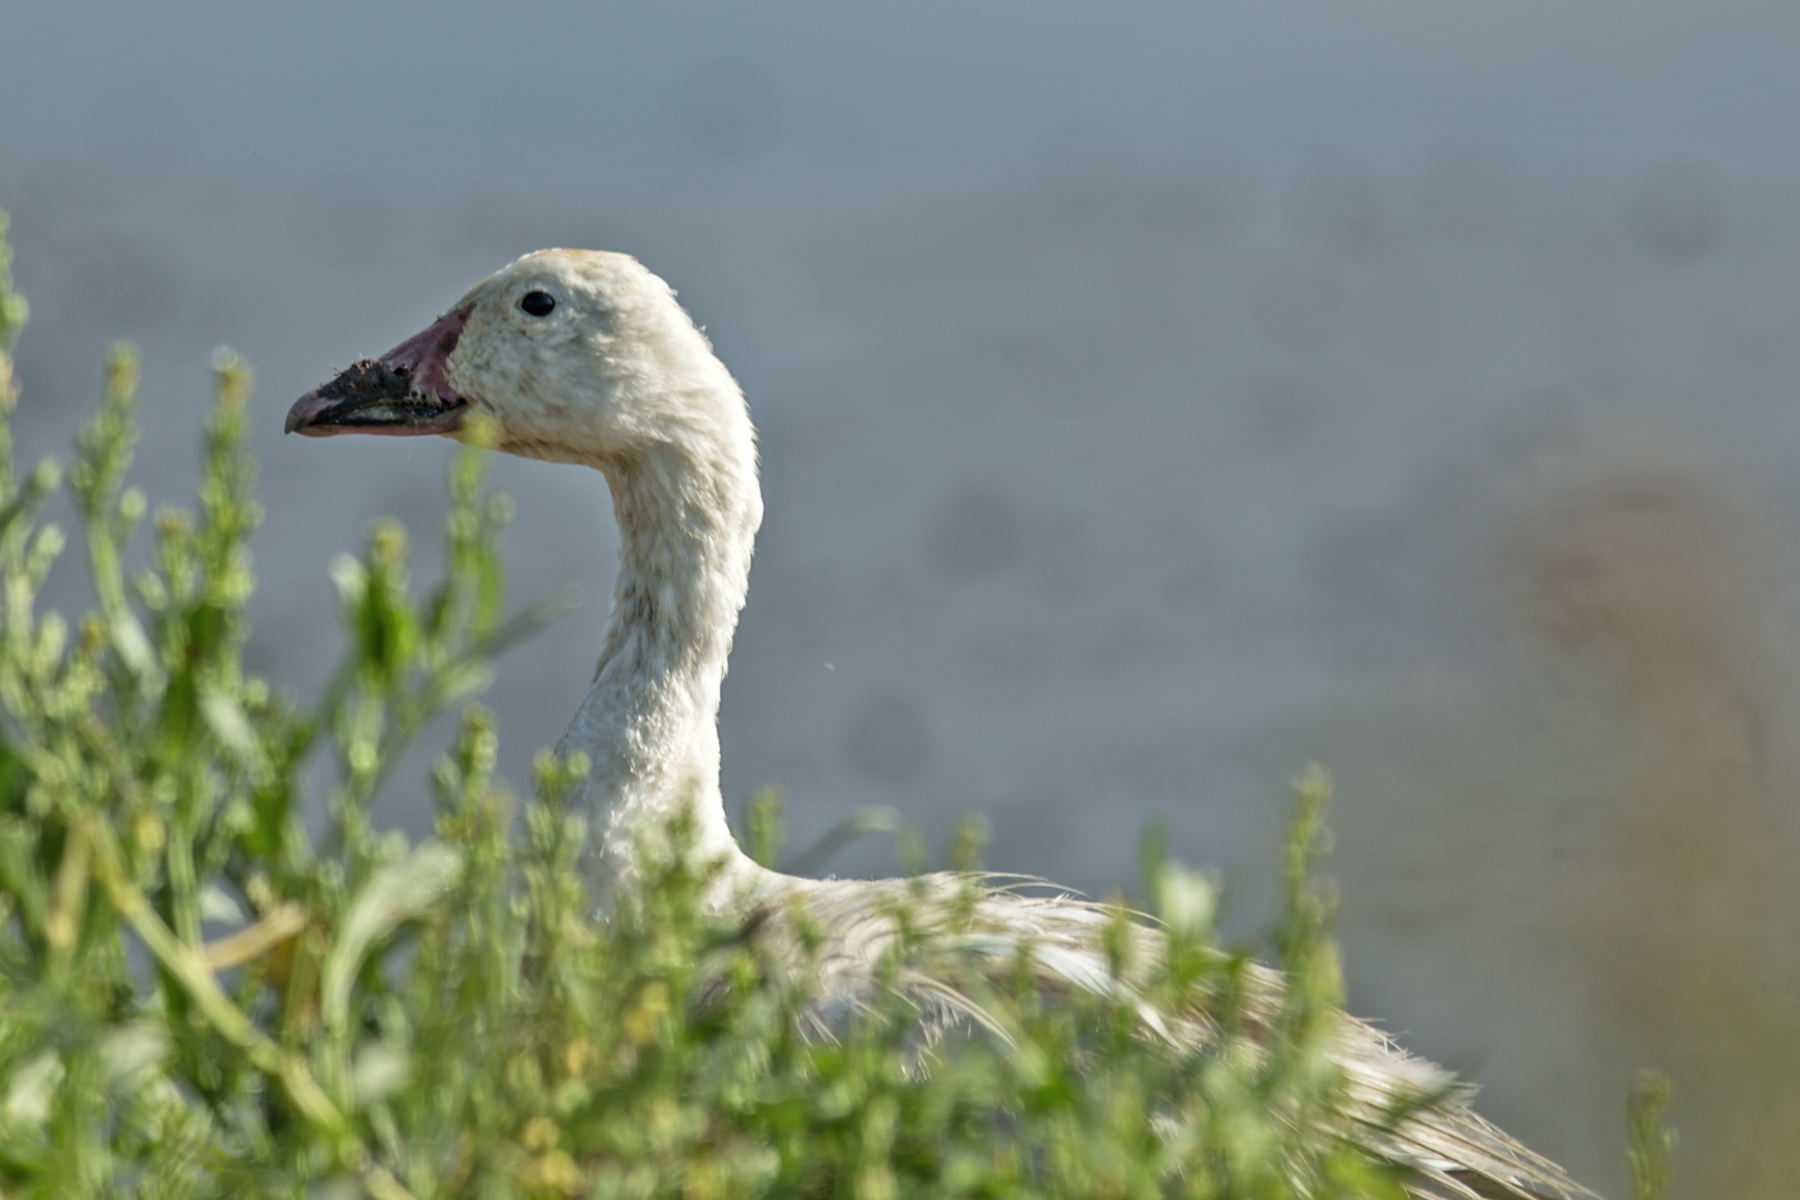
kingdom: Animalia
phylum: Chordata
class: Aves
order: Anseriformes
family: Anatidae
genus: Anser
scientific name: Anser caerulescens
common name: Snow goose
